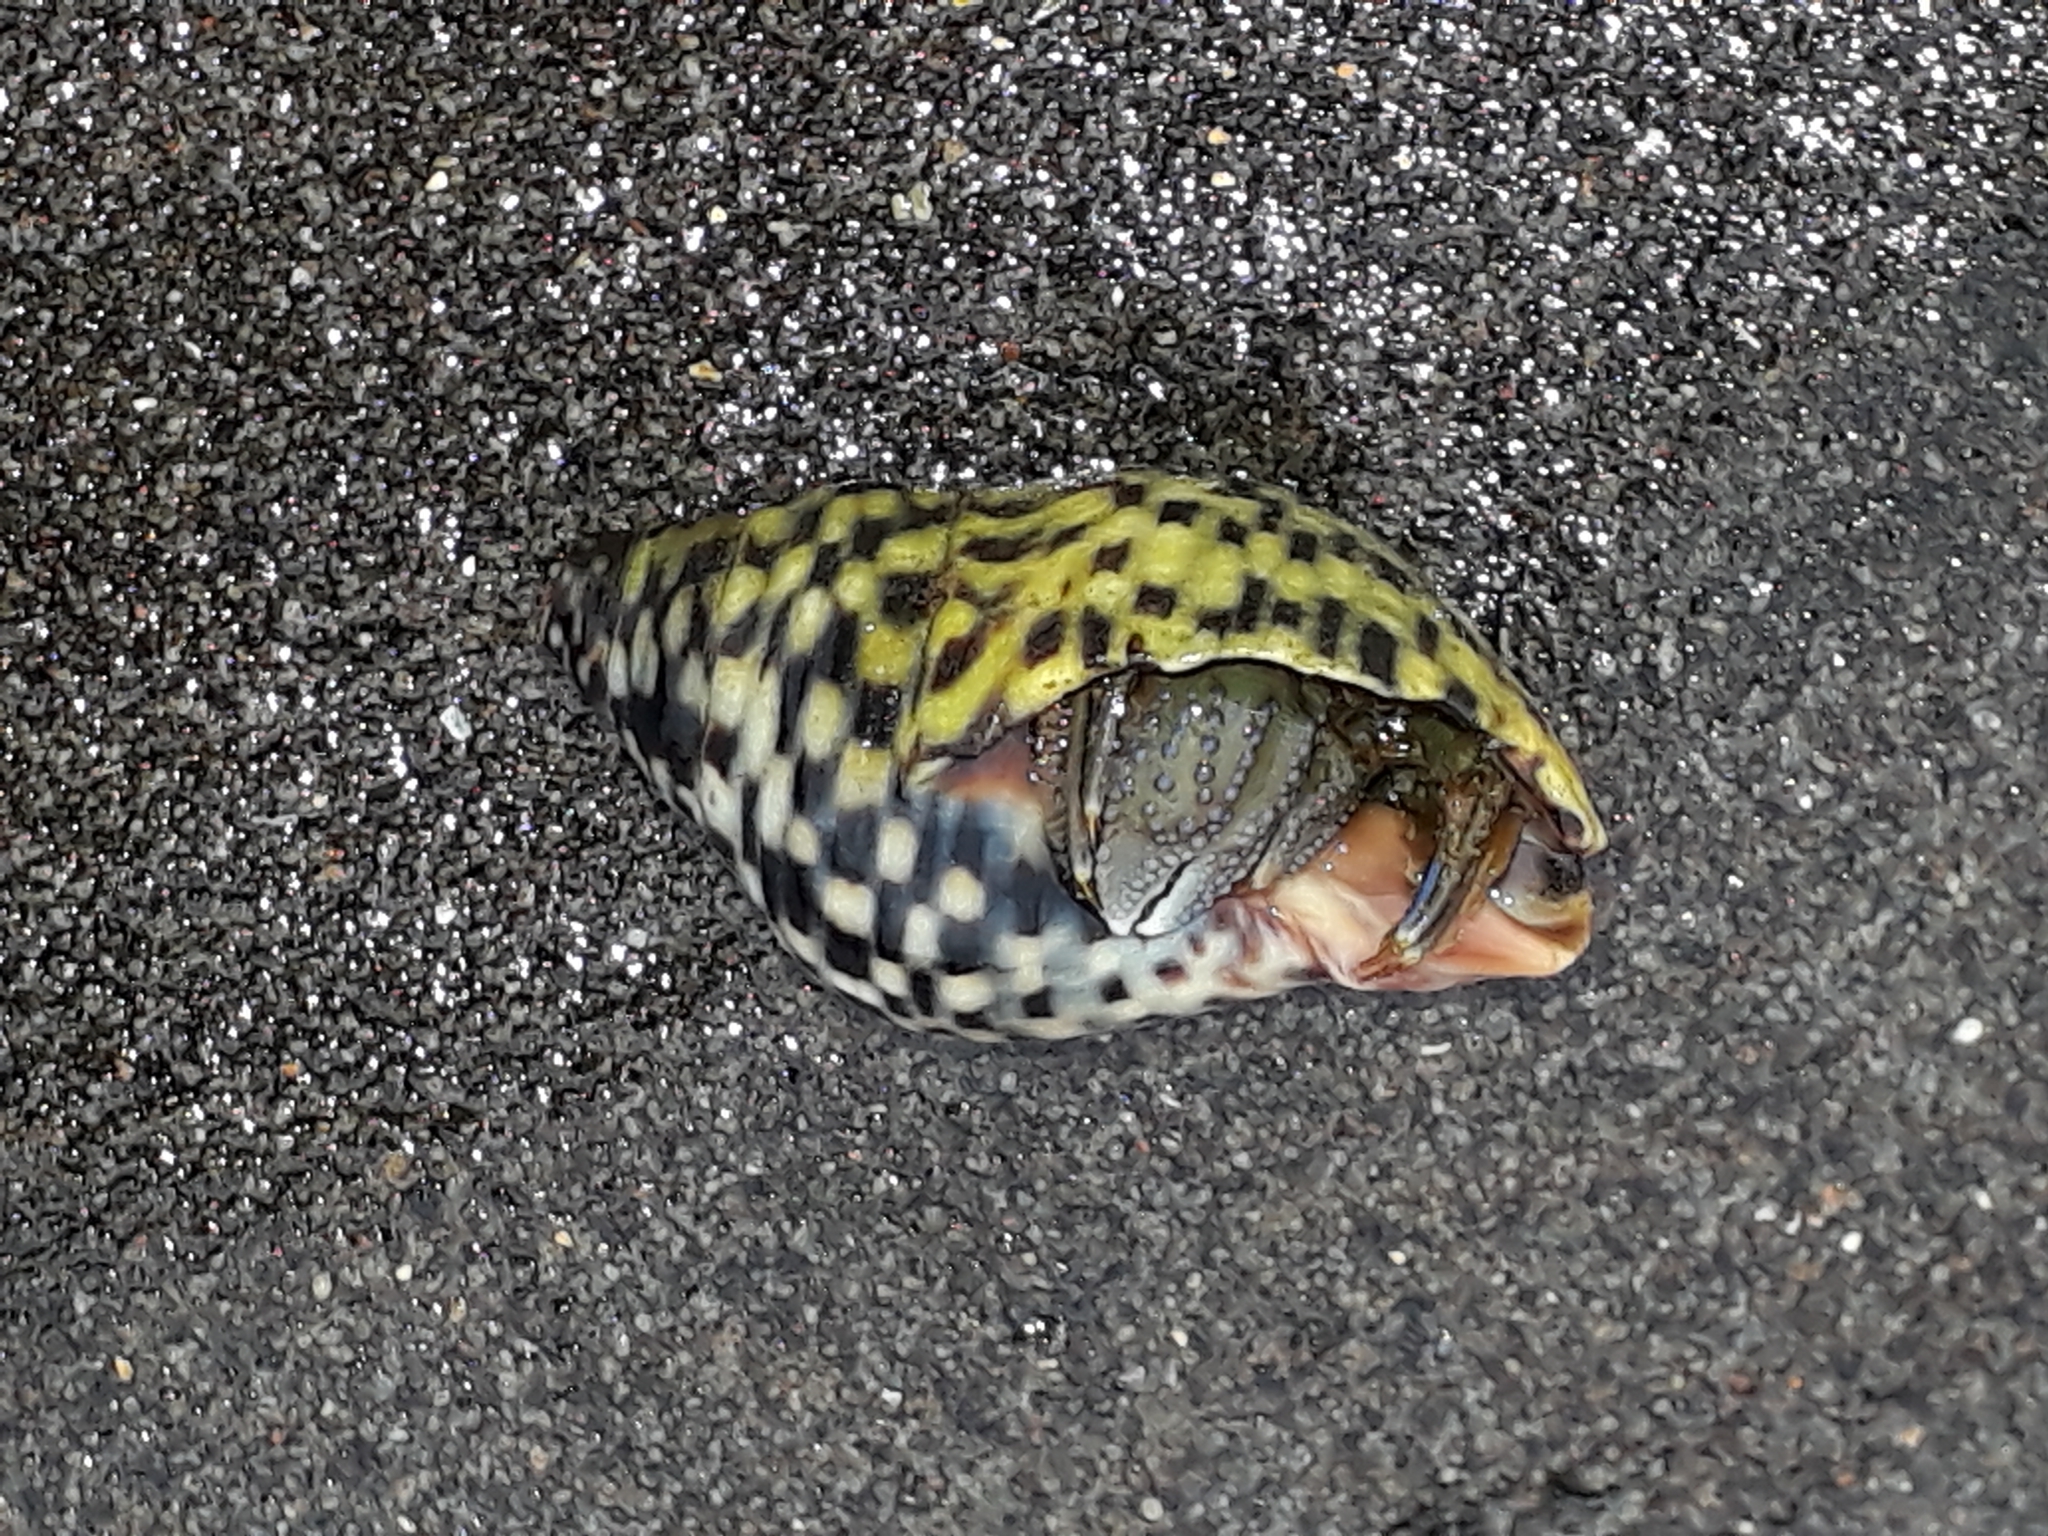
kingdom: Animalia
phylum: Arthropoda
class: Malacostraca
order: Decapoda
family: Paguridae
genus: Pagurus
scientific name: Pagurus novizealandiae
